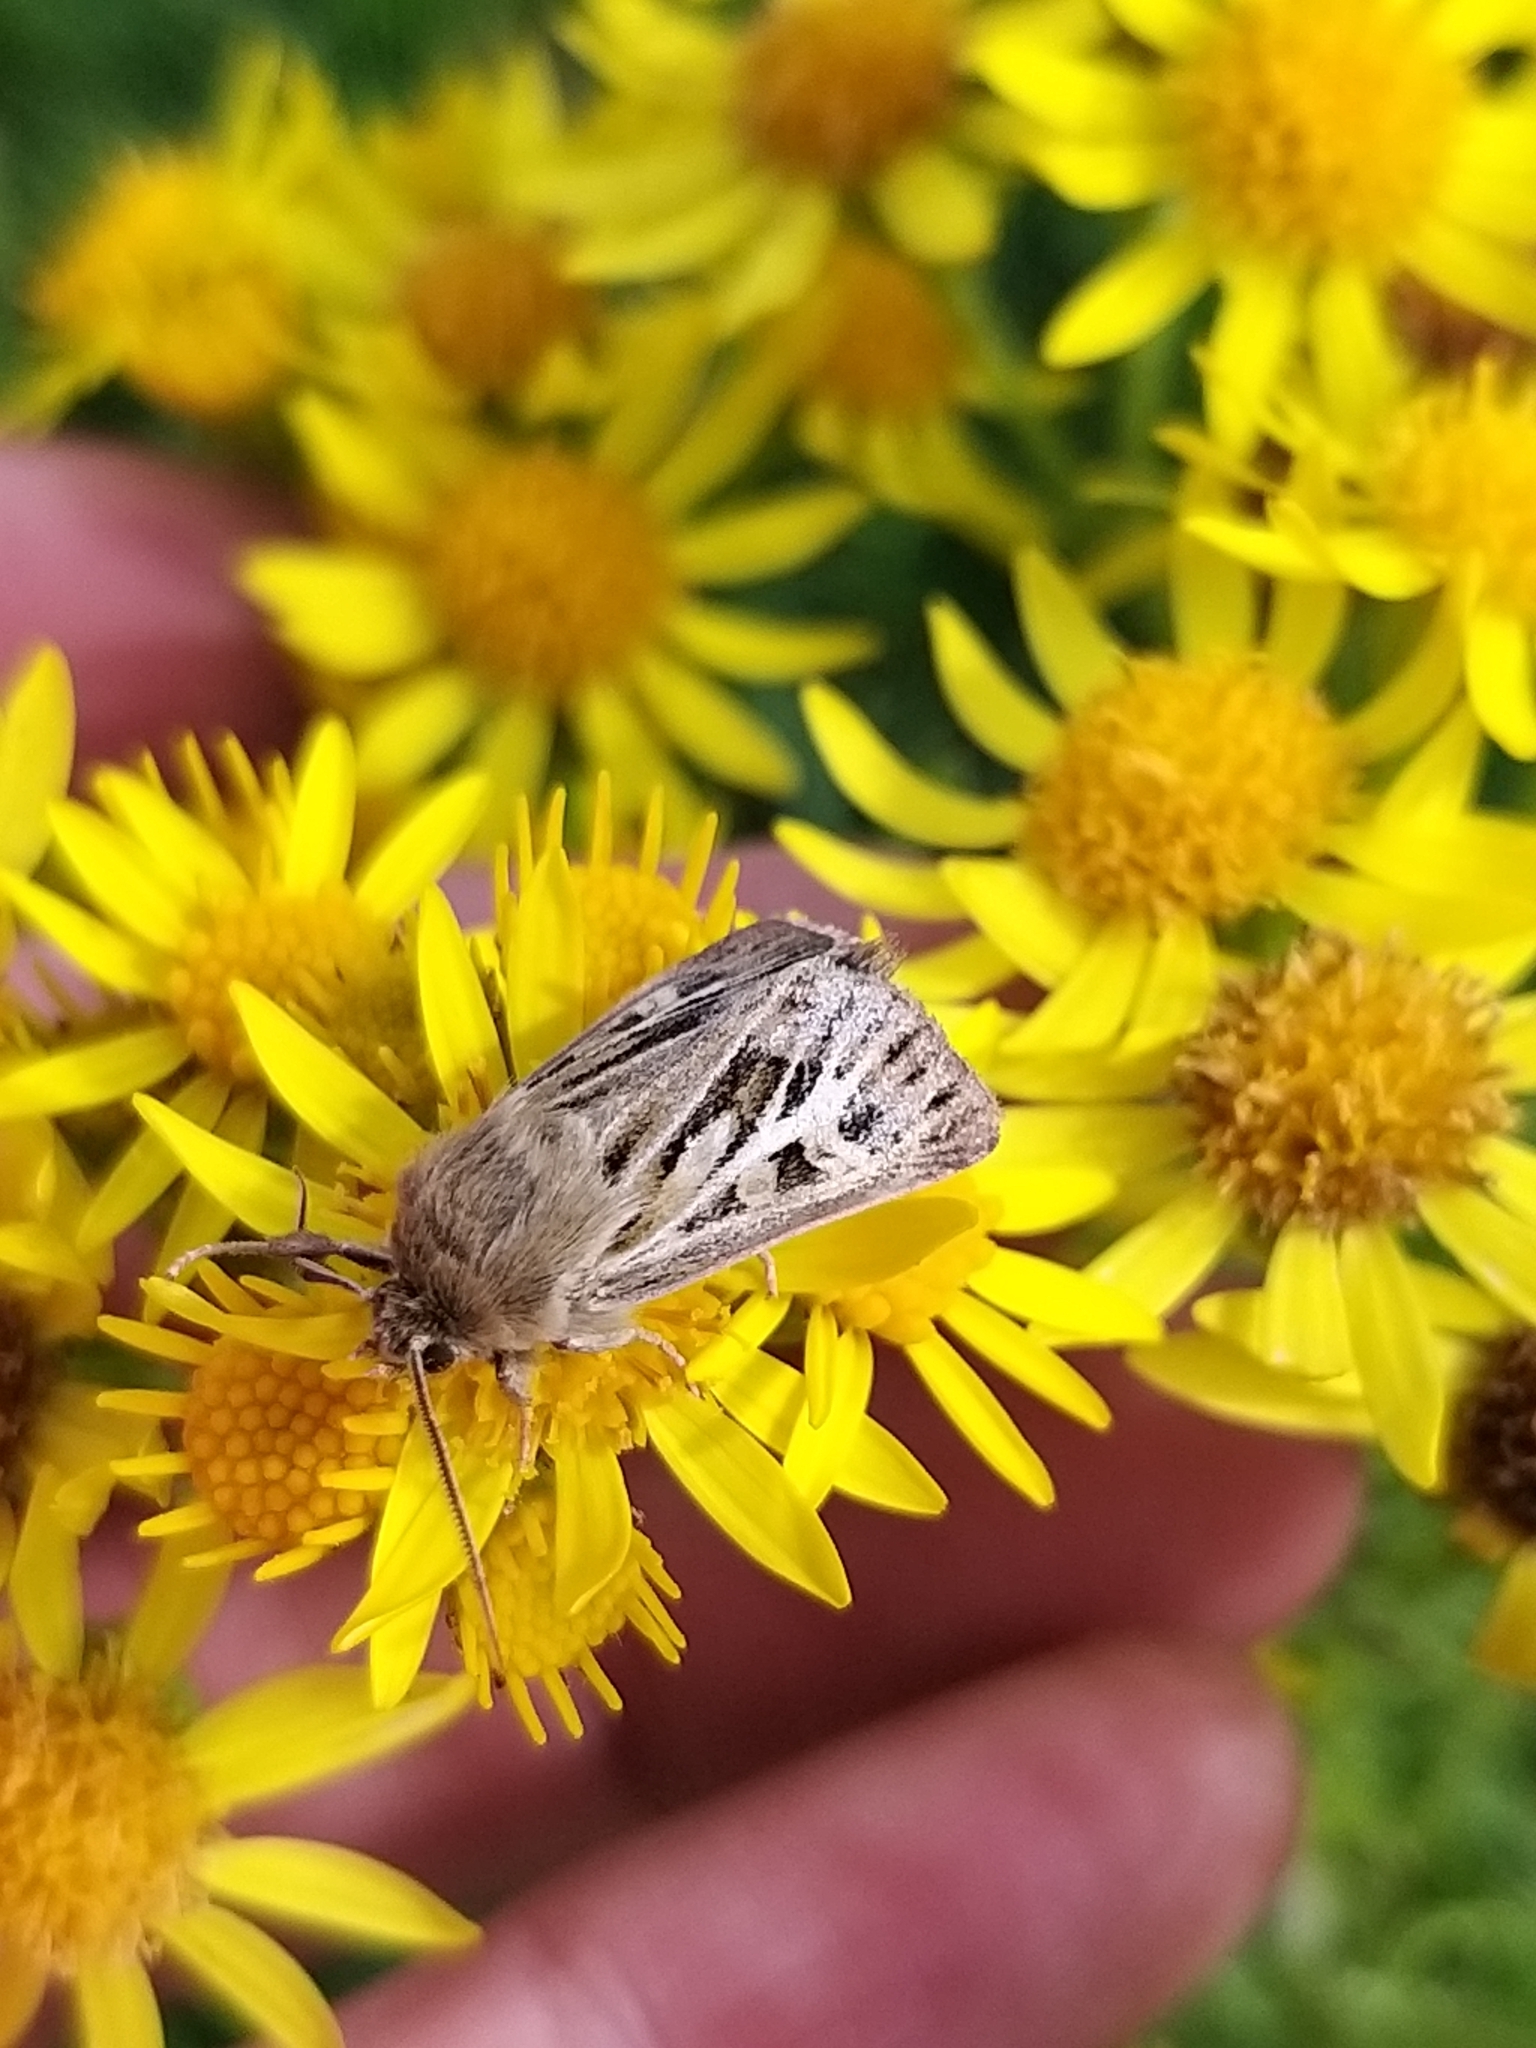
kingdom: Animalia
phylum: Arthropoda
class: Insecta
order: Lepidoptera
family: Noctuidae
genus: Cerapteryx
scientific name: Cerapteryx graminis
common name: Antler moth
